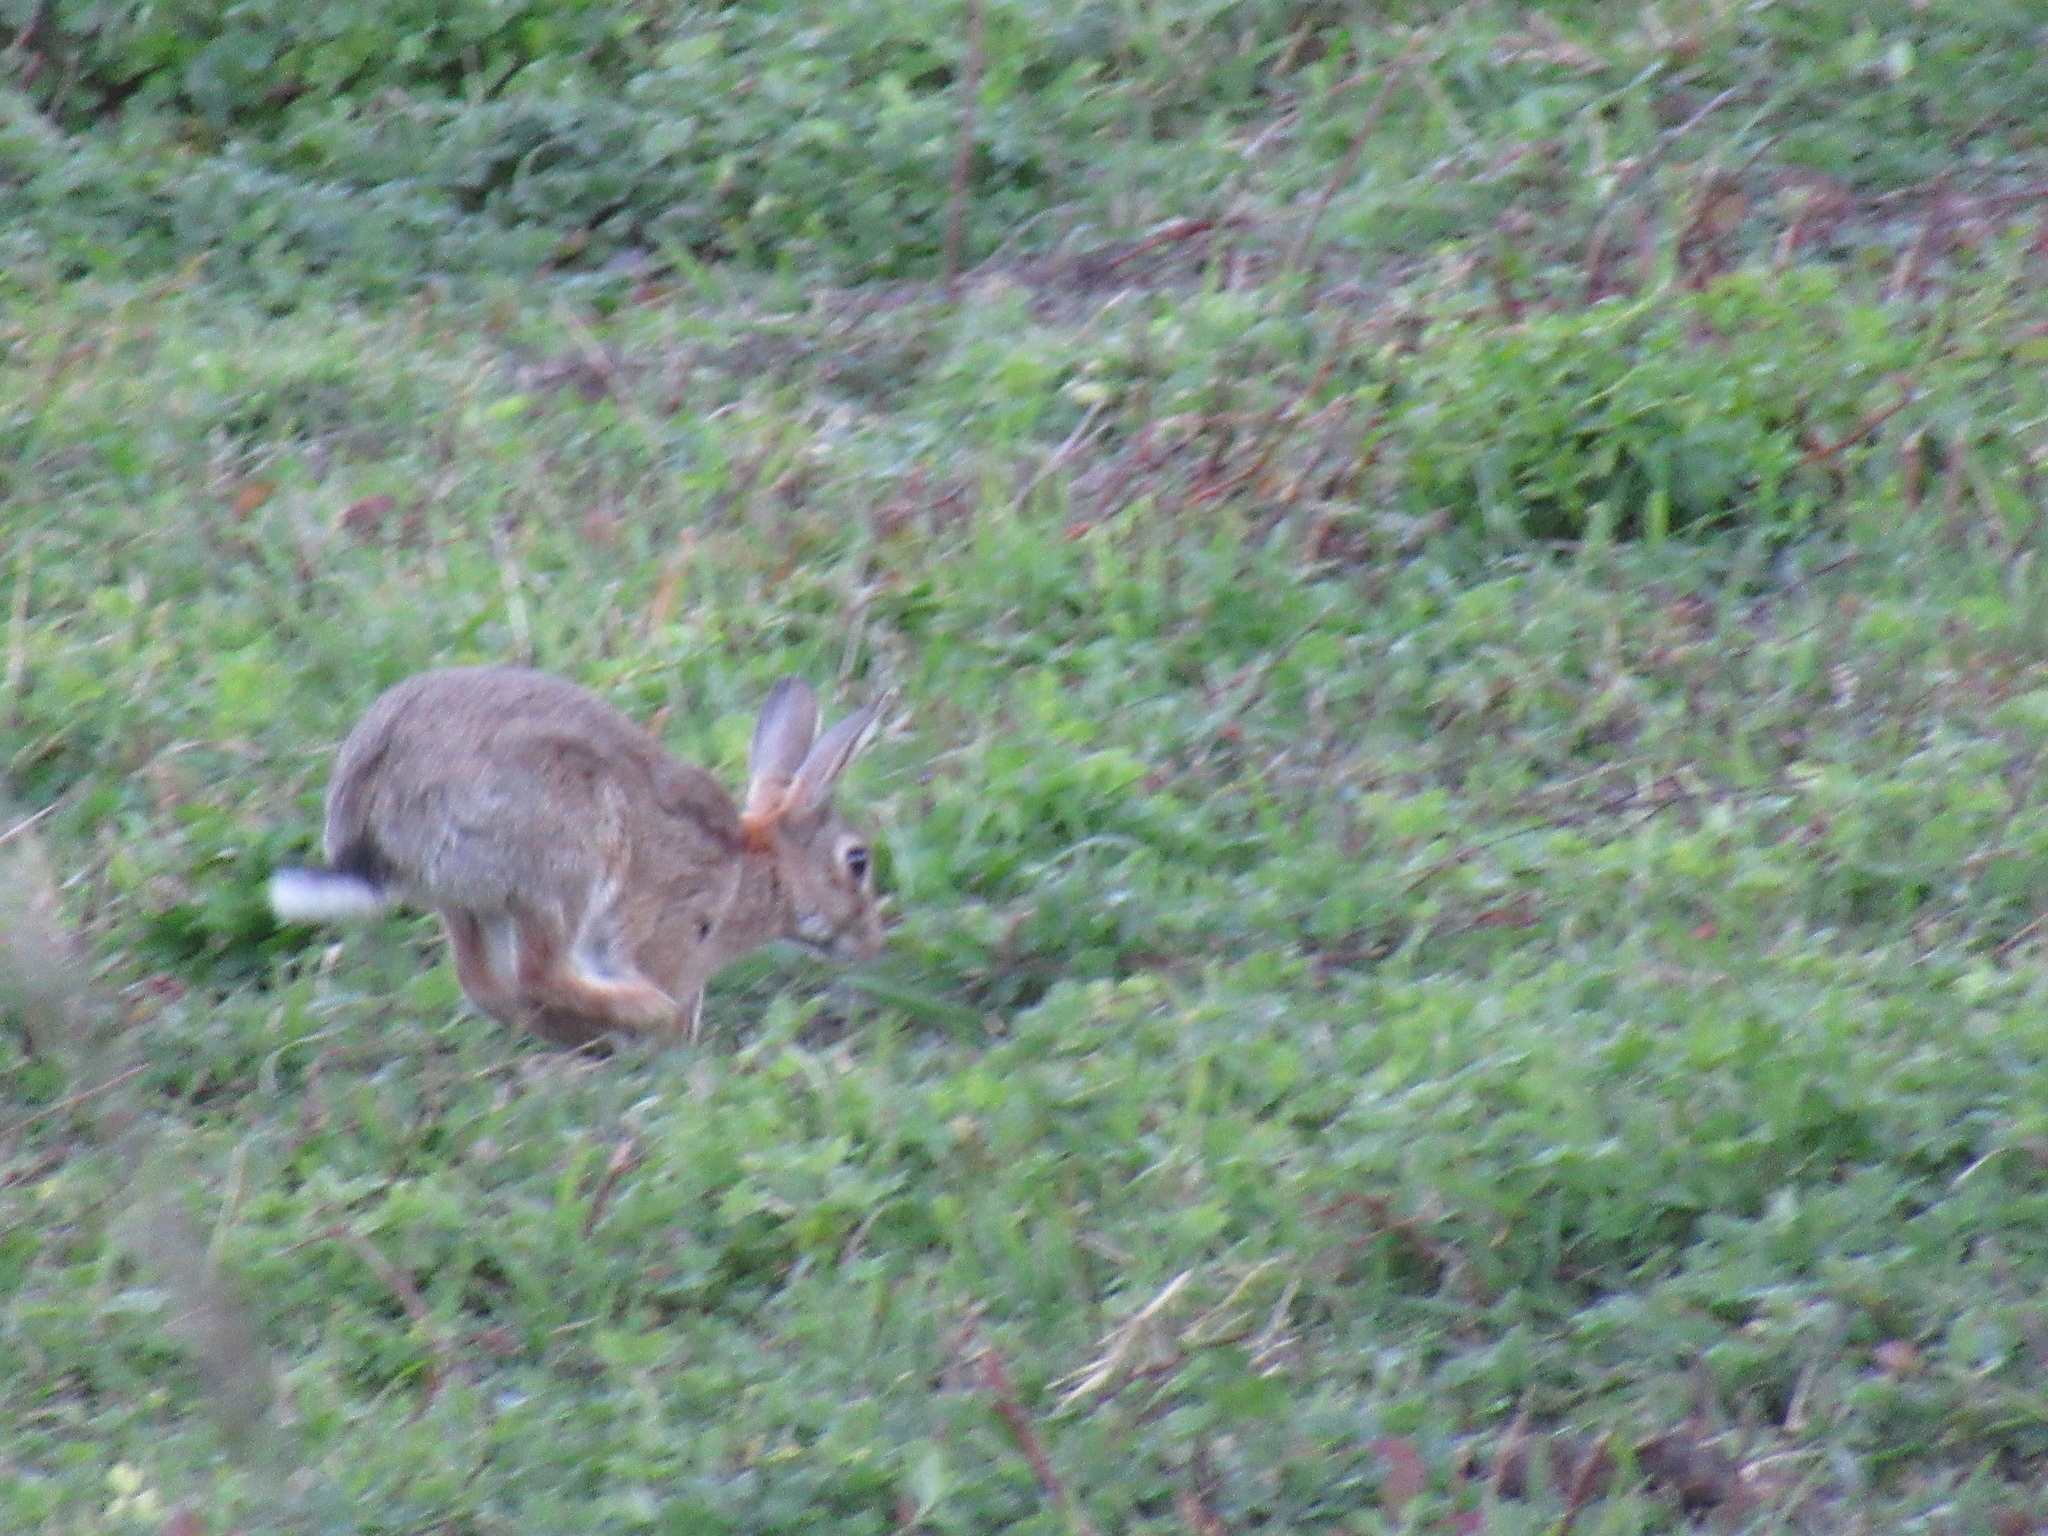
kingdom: Animalia
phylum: Chordata
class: Mammalia
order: Lagomorpha
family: Leporidae
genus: Oryctolagus
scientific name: Oryctolagus cuniculus
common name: European rabbit
